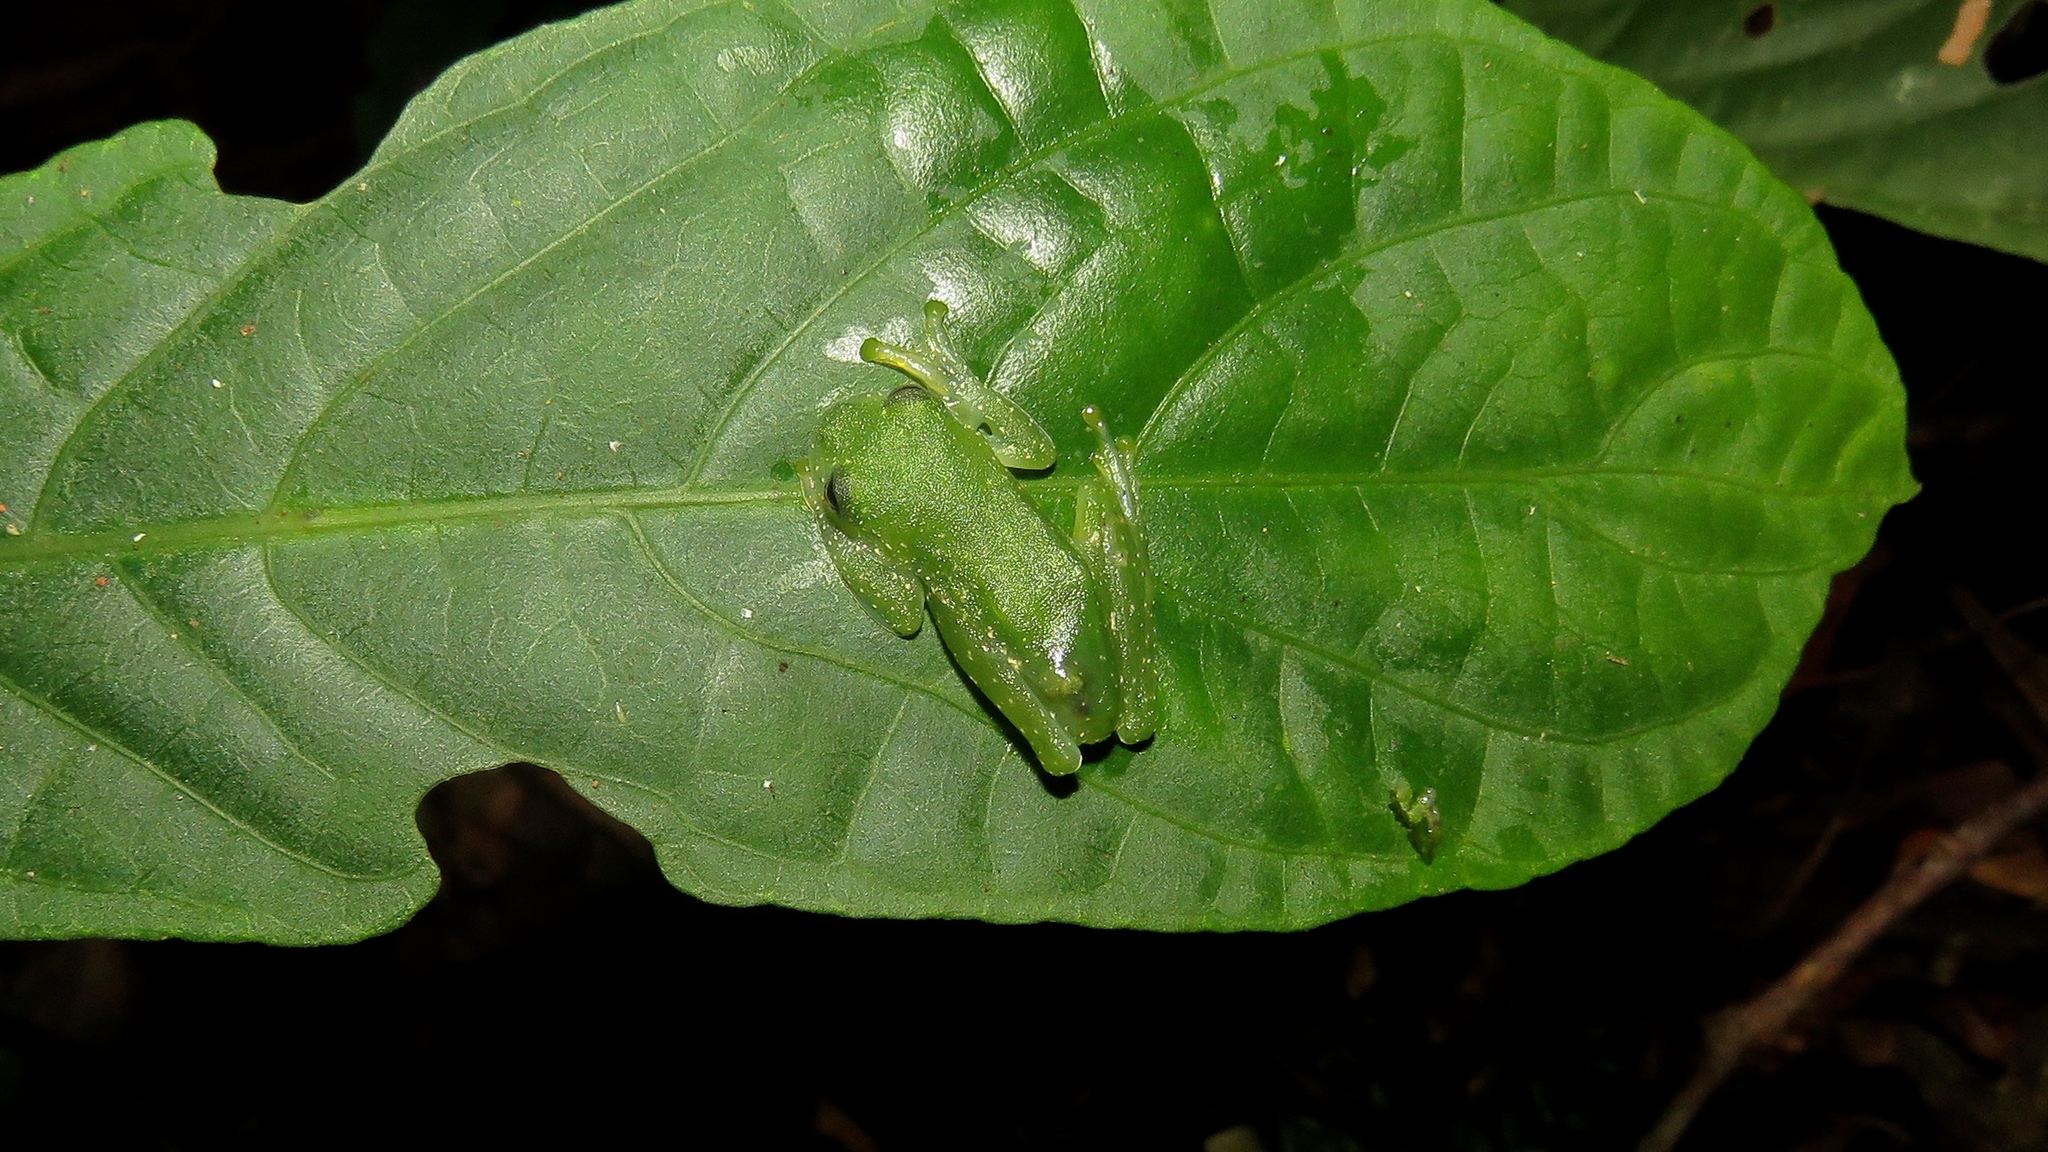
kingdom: Animalia
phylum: Chordata
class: Amphibia
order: Anura
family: Centrolenidae
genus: Teratohyla
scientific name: Teratohyla pulverata
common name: Chiriqui glass frog
